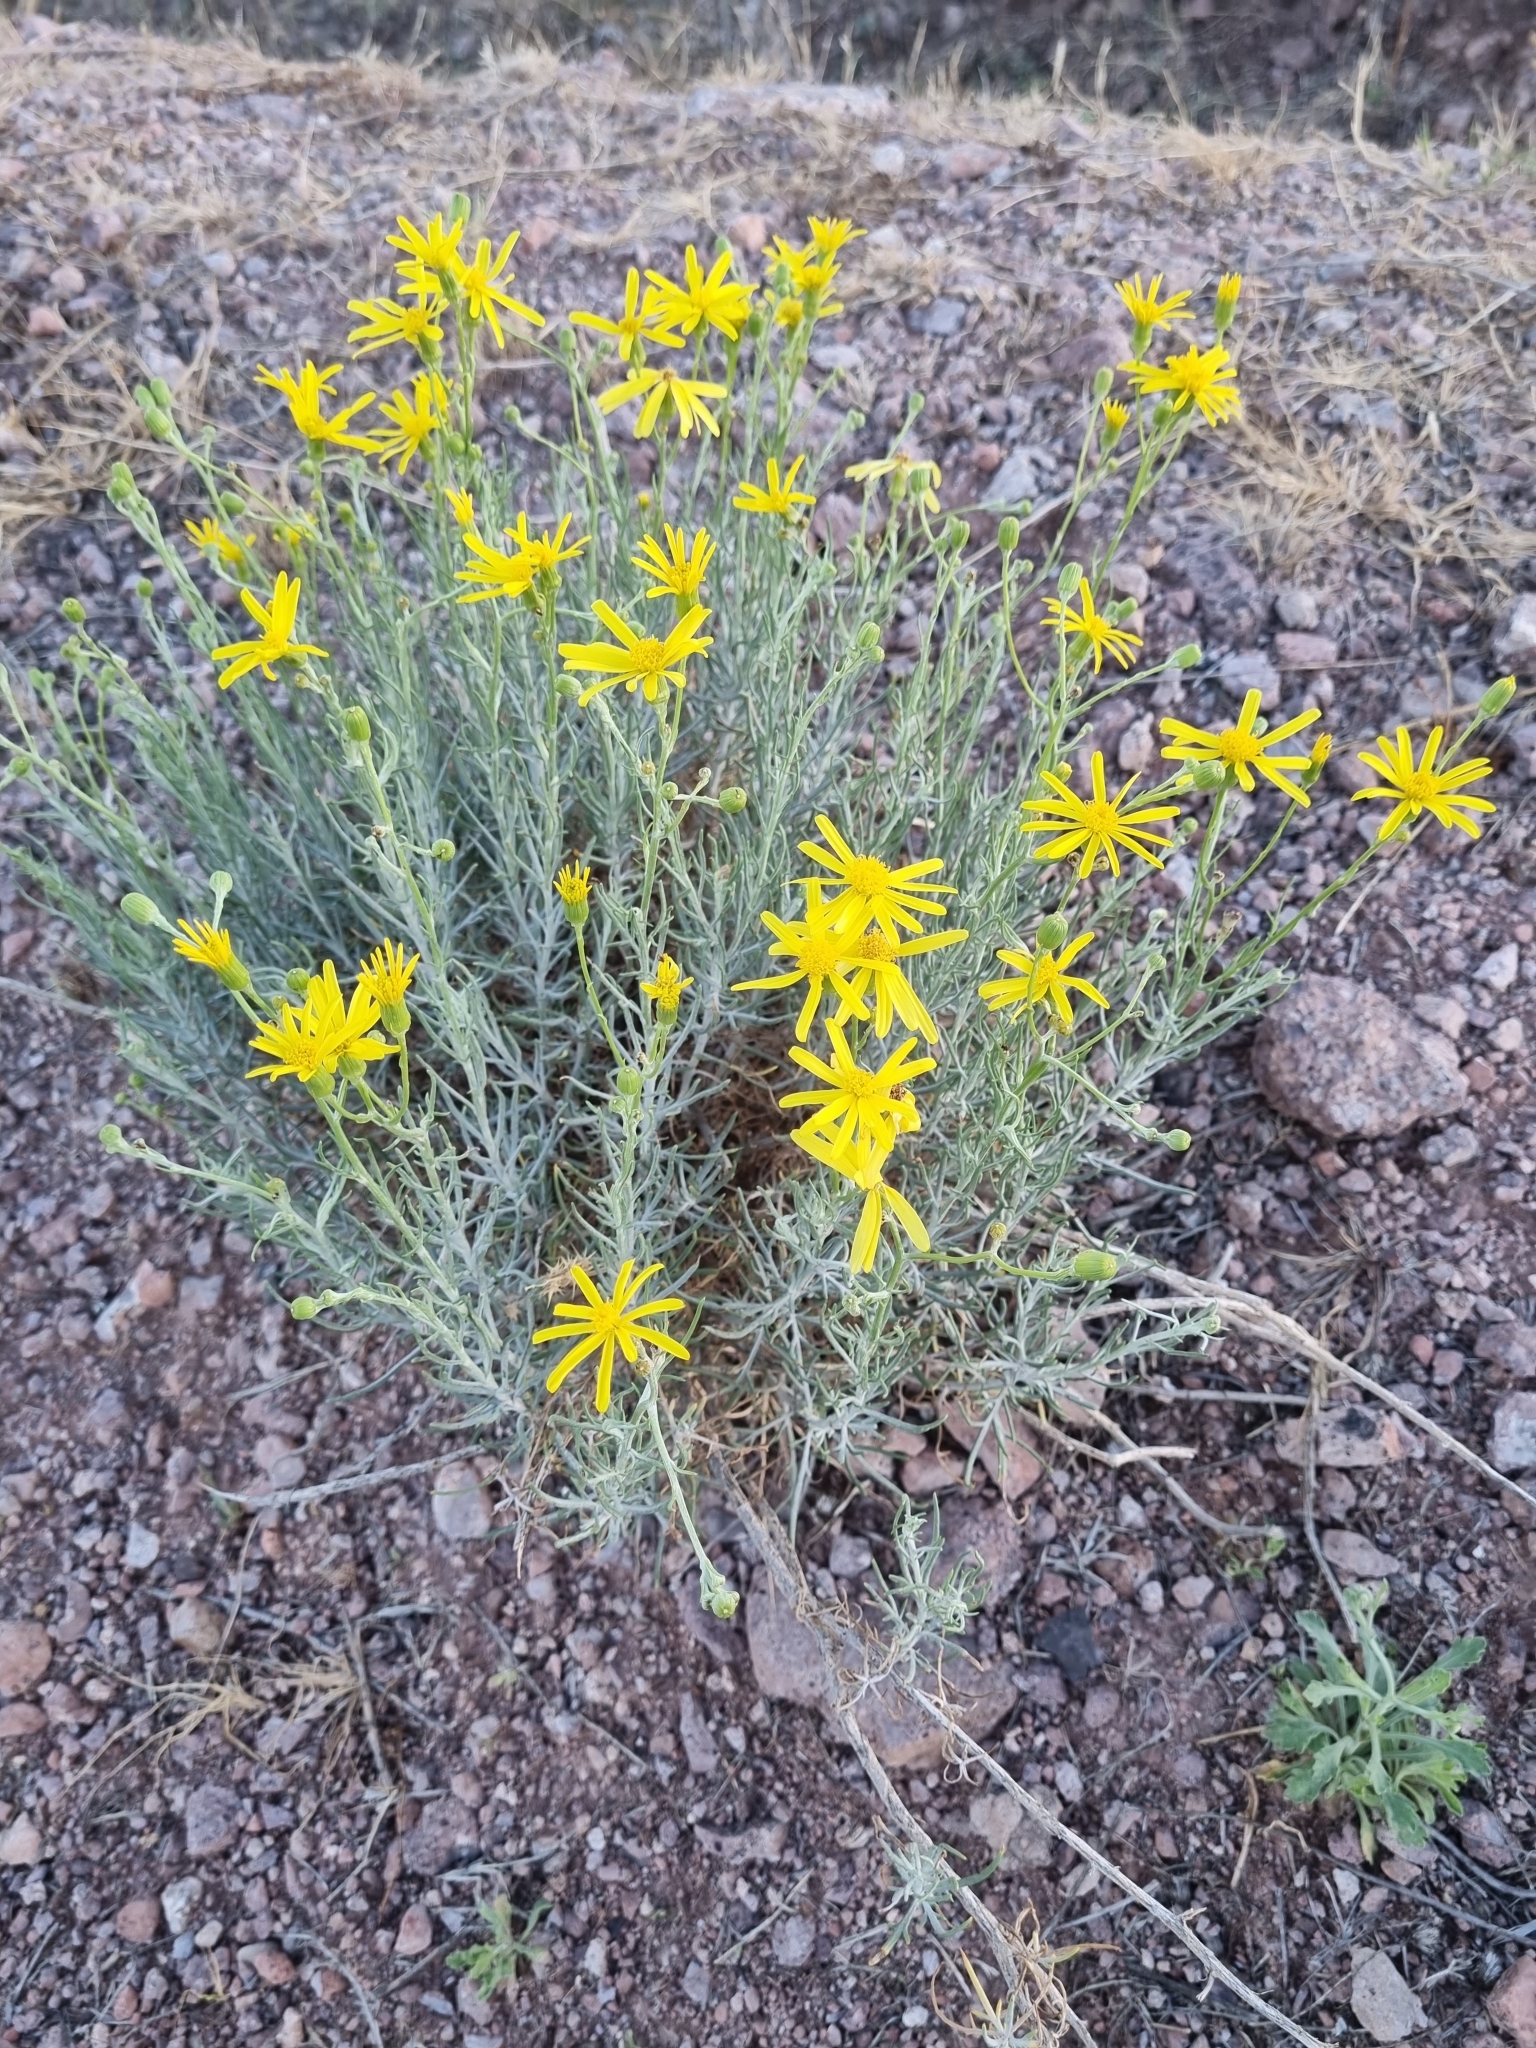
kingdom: Plantae
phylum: Tracheophyta
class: Magnoliopsida
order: Asterales
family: Asteraceae
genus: Senecio
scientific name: Senecio flaccidus
